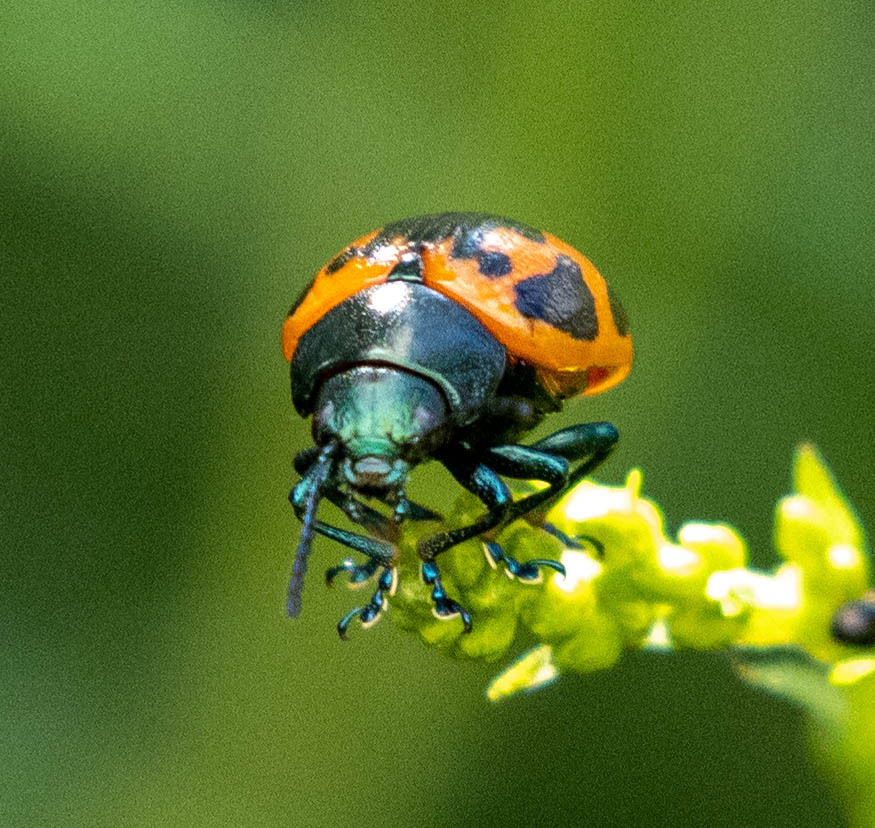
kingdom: Animalia
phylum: Arthropoda
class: Insecta
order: Coleoptera
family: Chrysomelidae
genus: Labidomera
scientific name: Labidomera clivicollis
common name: Swamp milkweed leaf beetle
